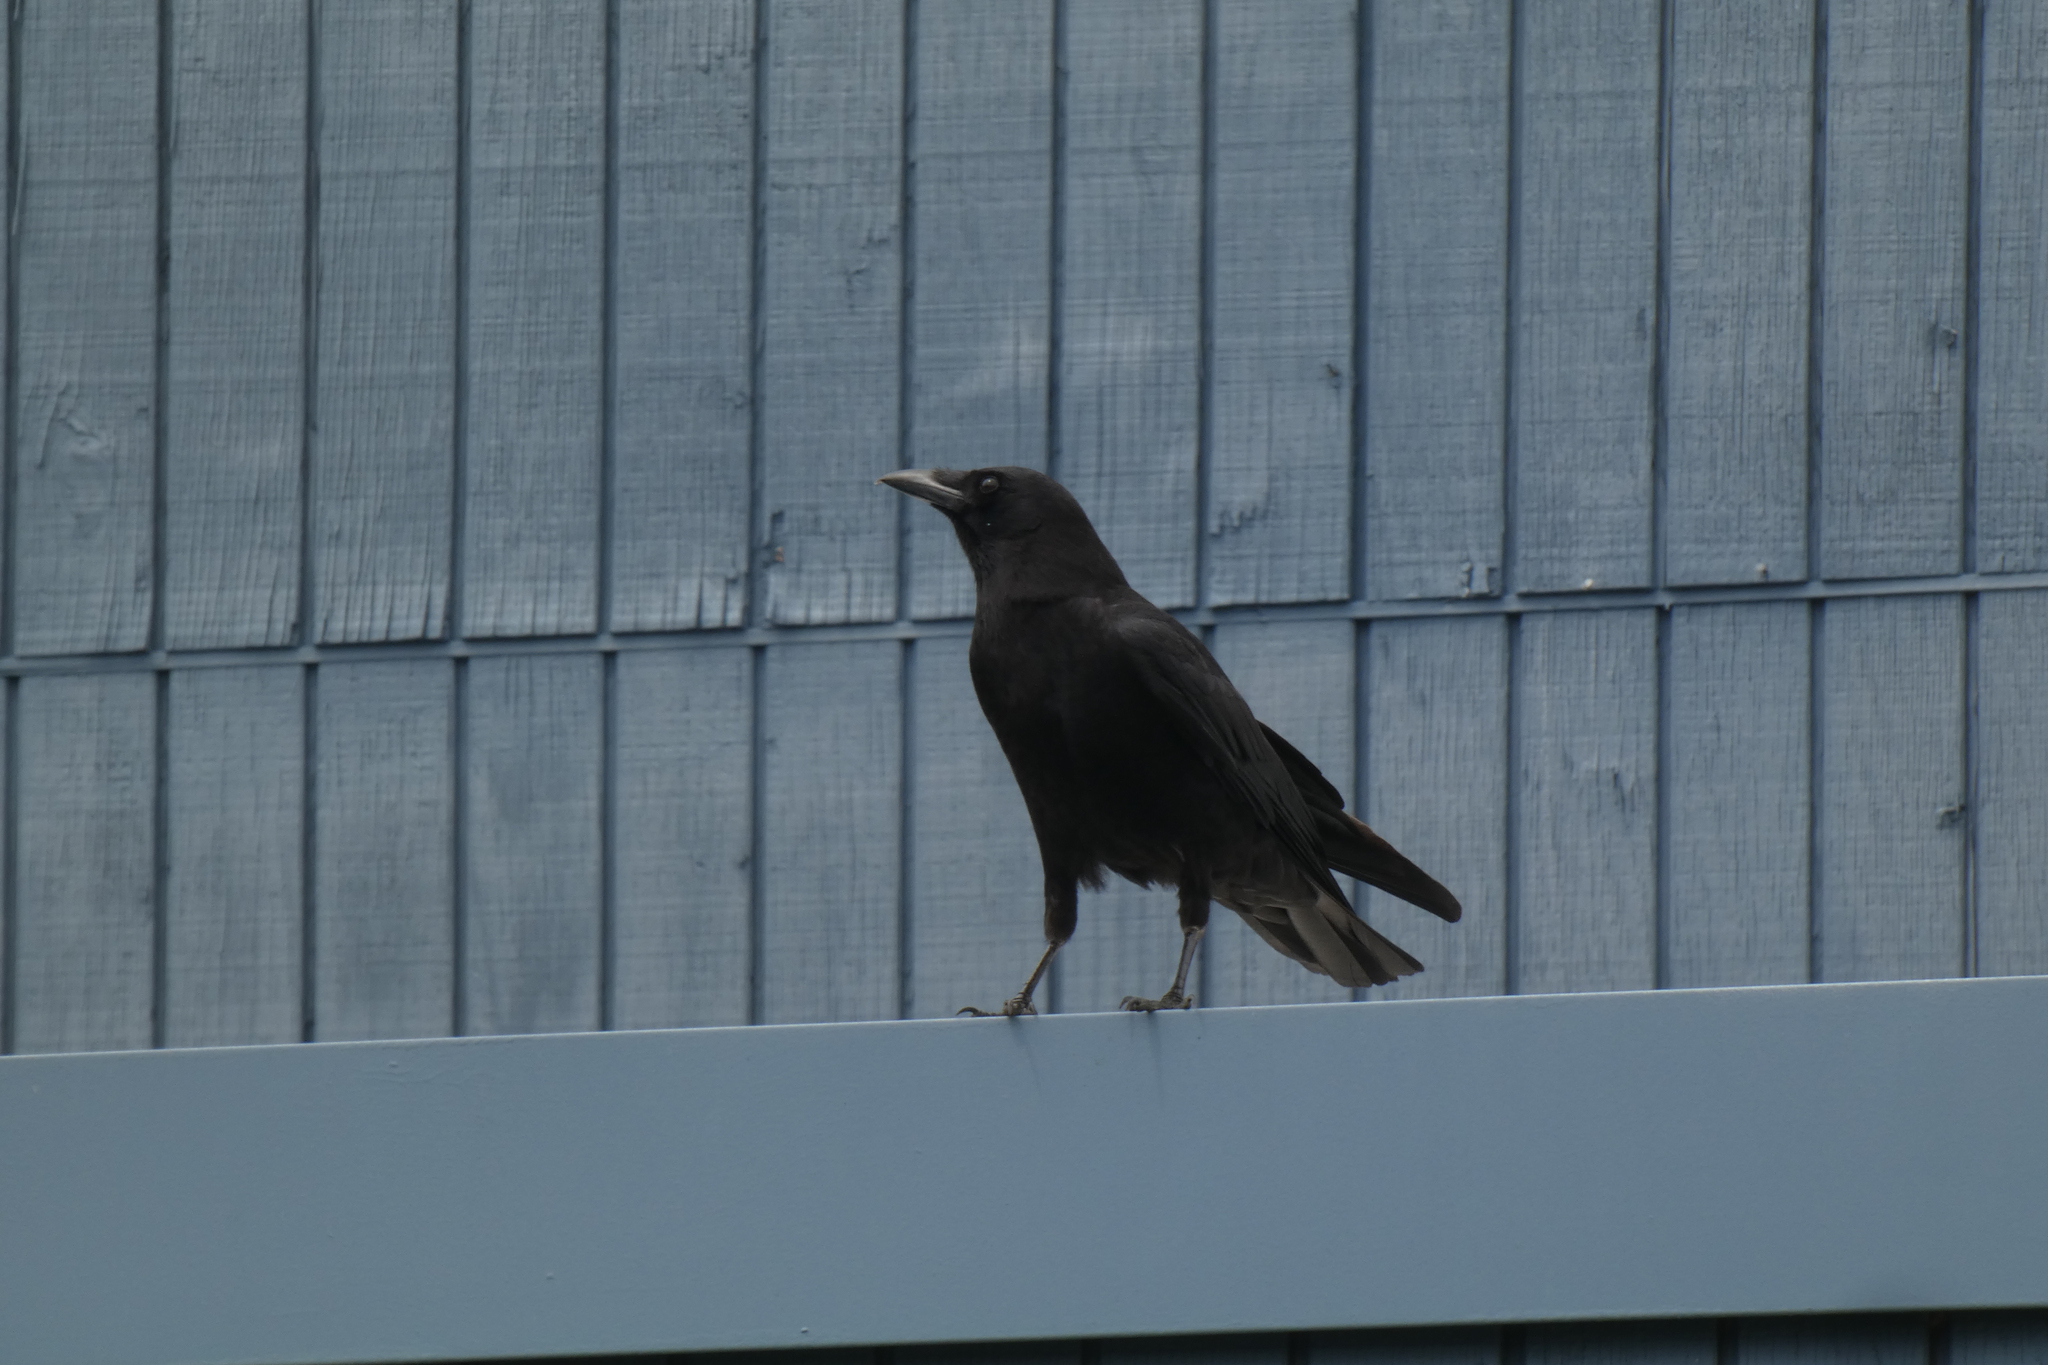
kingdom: Animalia
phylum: Chordata
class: Aves
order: Passeriformes
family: Corvidae
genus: Corvus
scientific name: Corvus brachyrhynchos
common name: American crow
